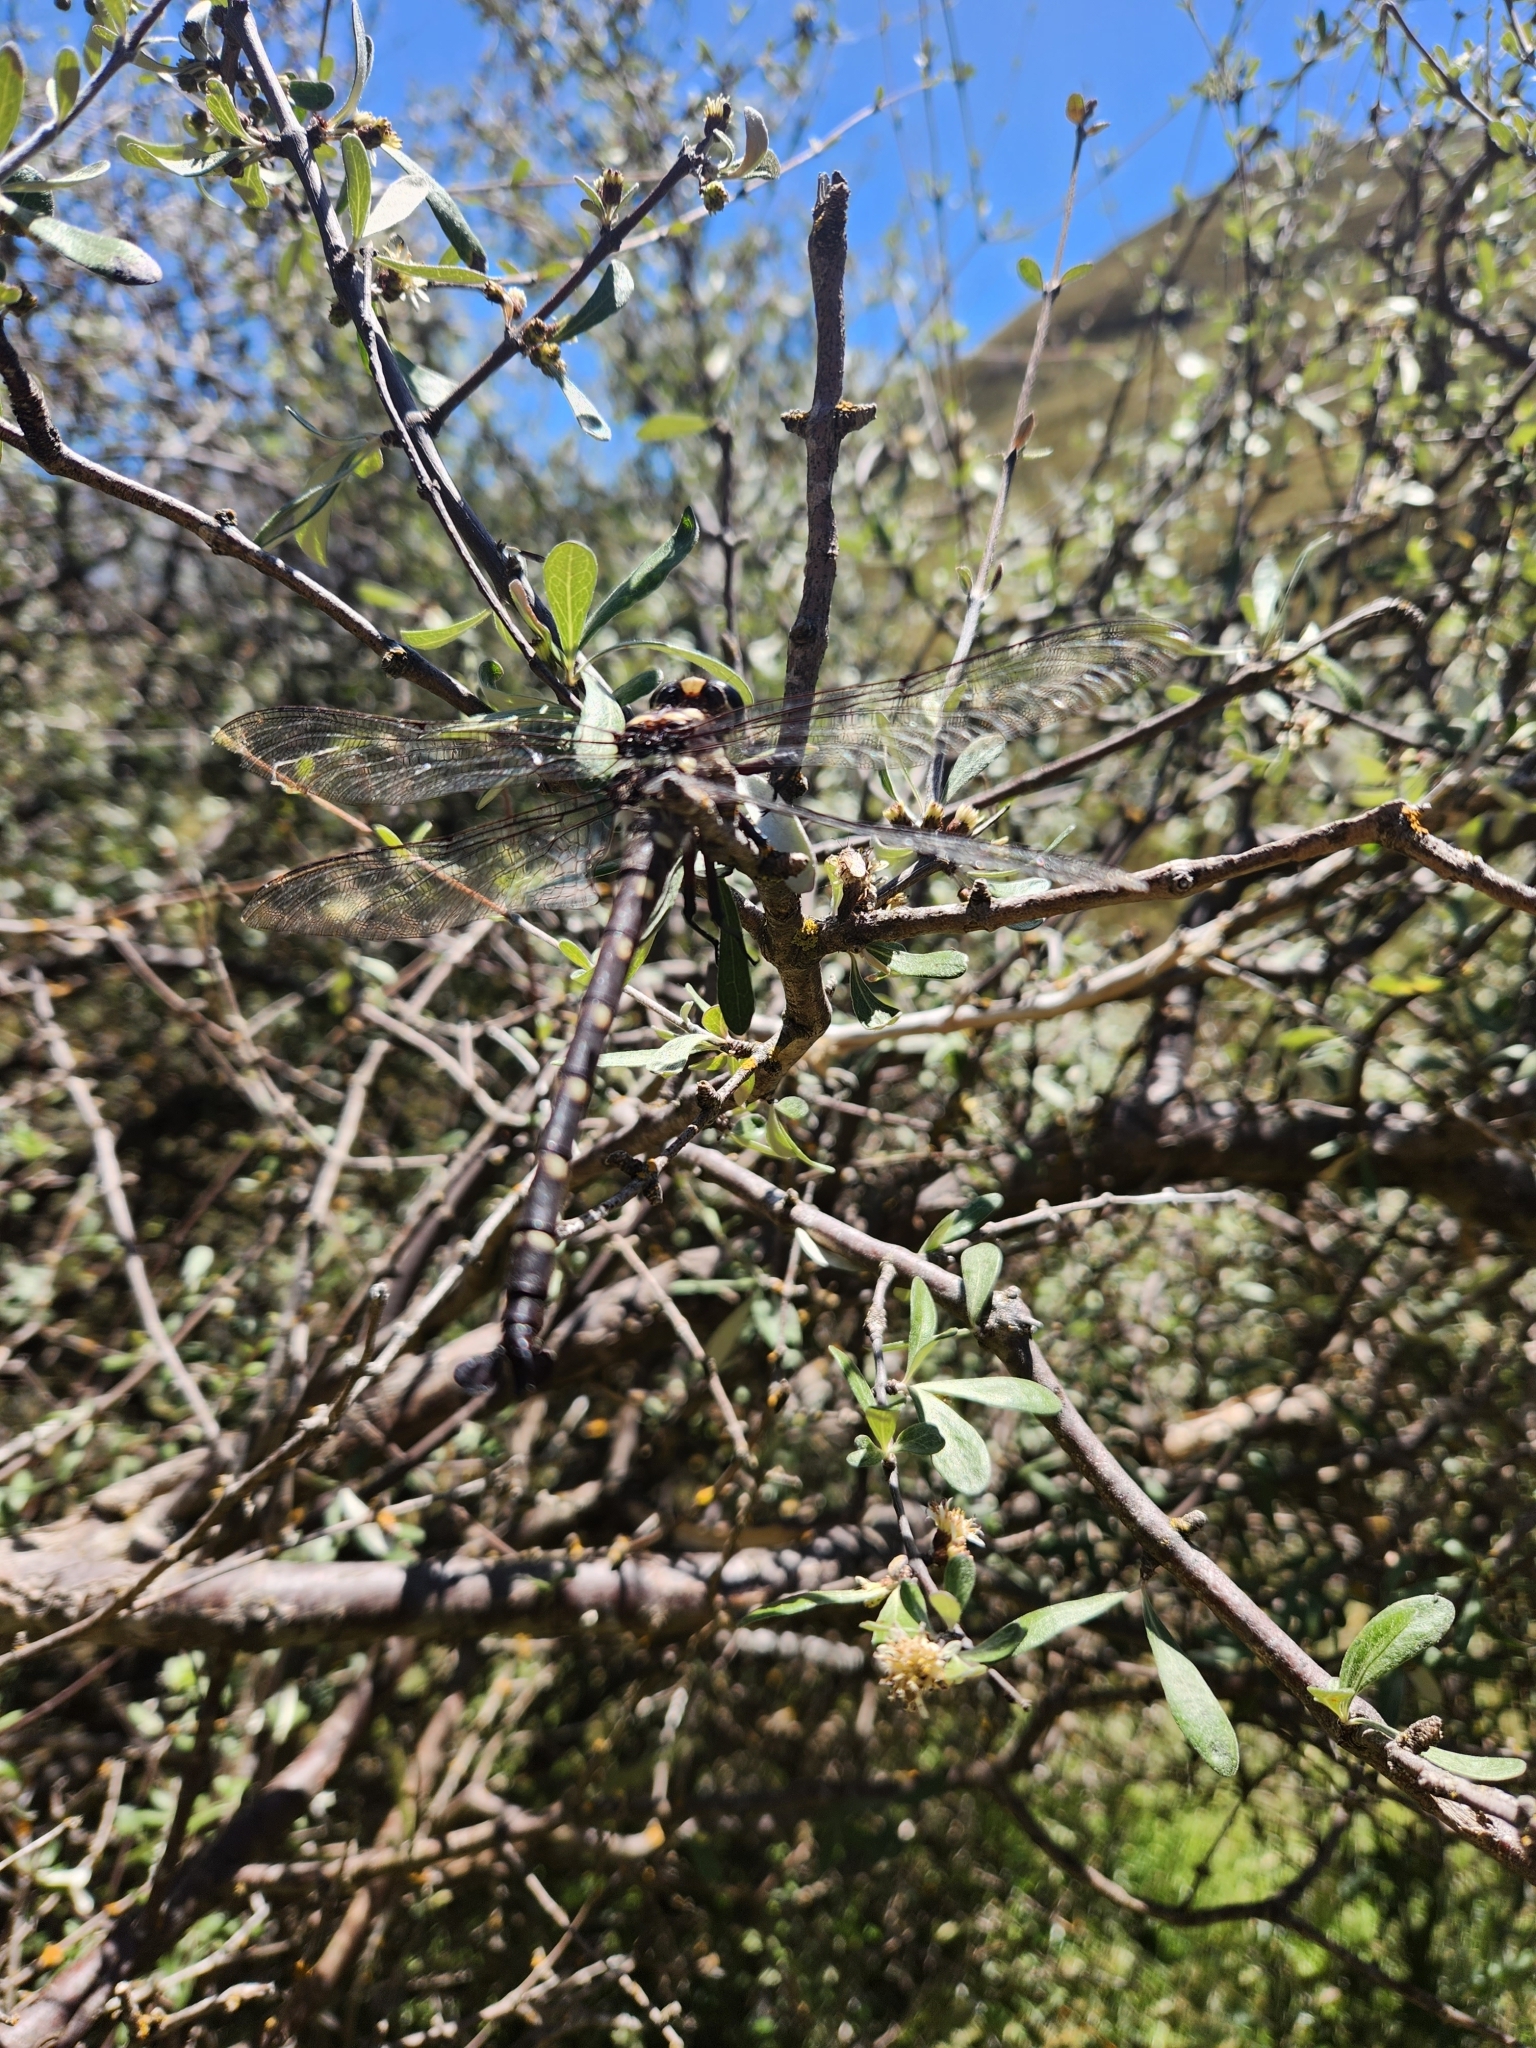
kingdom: Animalia
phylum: Arthropoda
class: Insecta
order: Odonata
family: Petaluridae
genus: Uropetala
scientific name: Uropetala carovei
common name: Bush giant dragonfly
